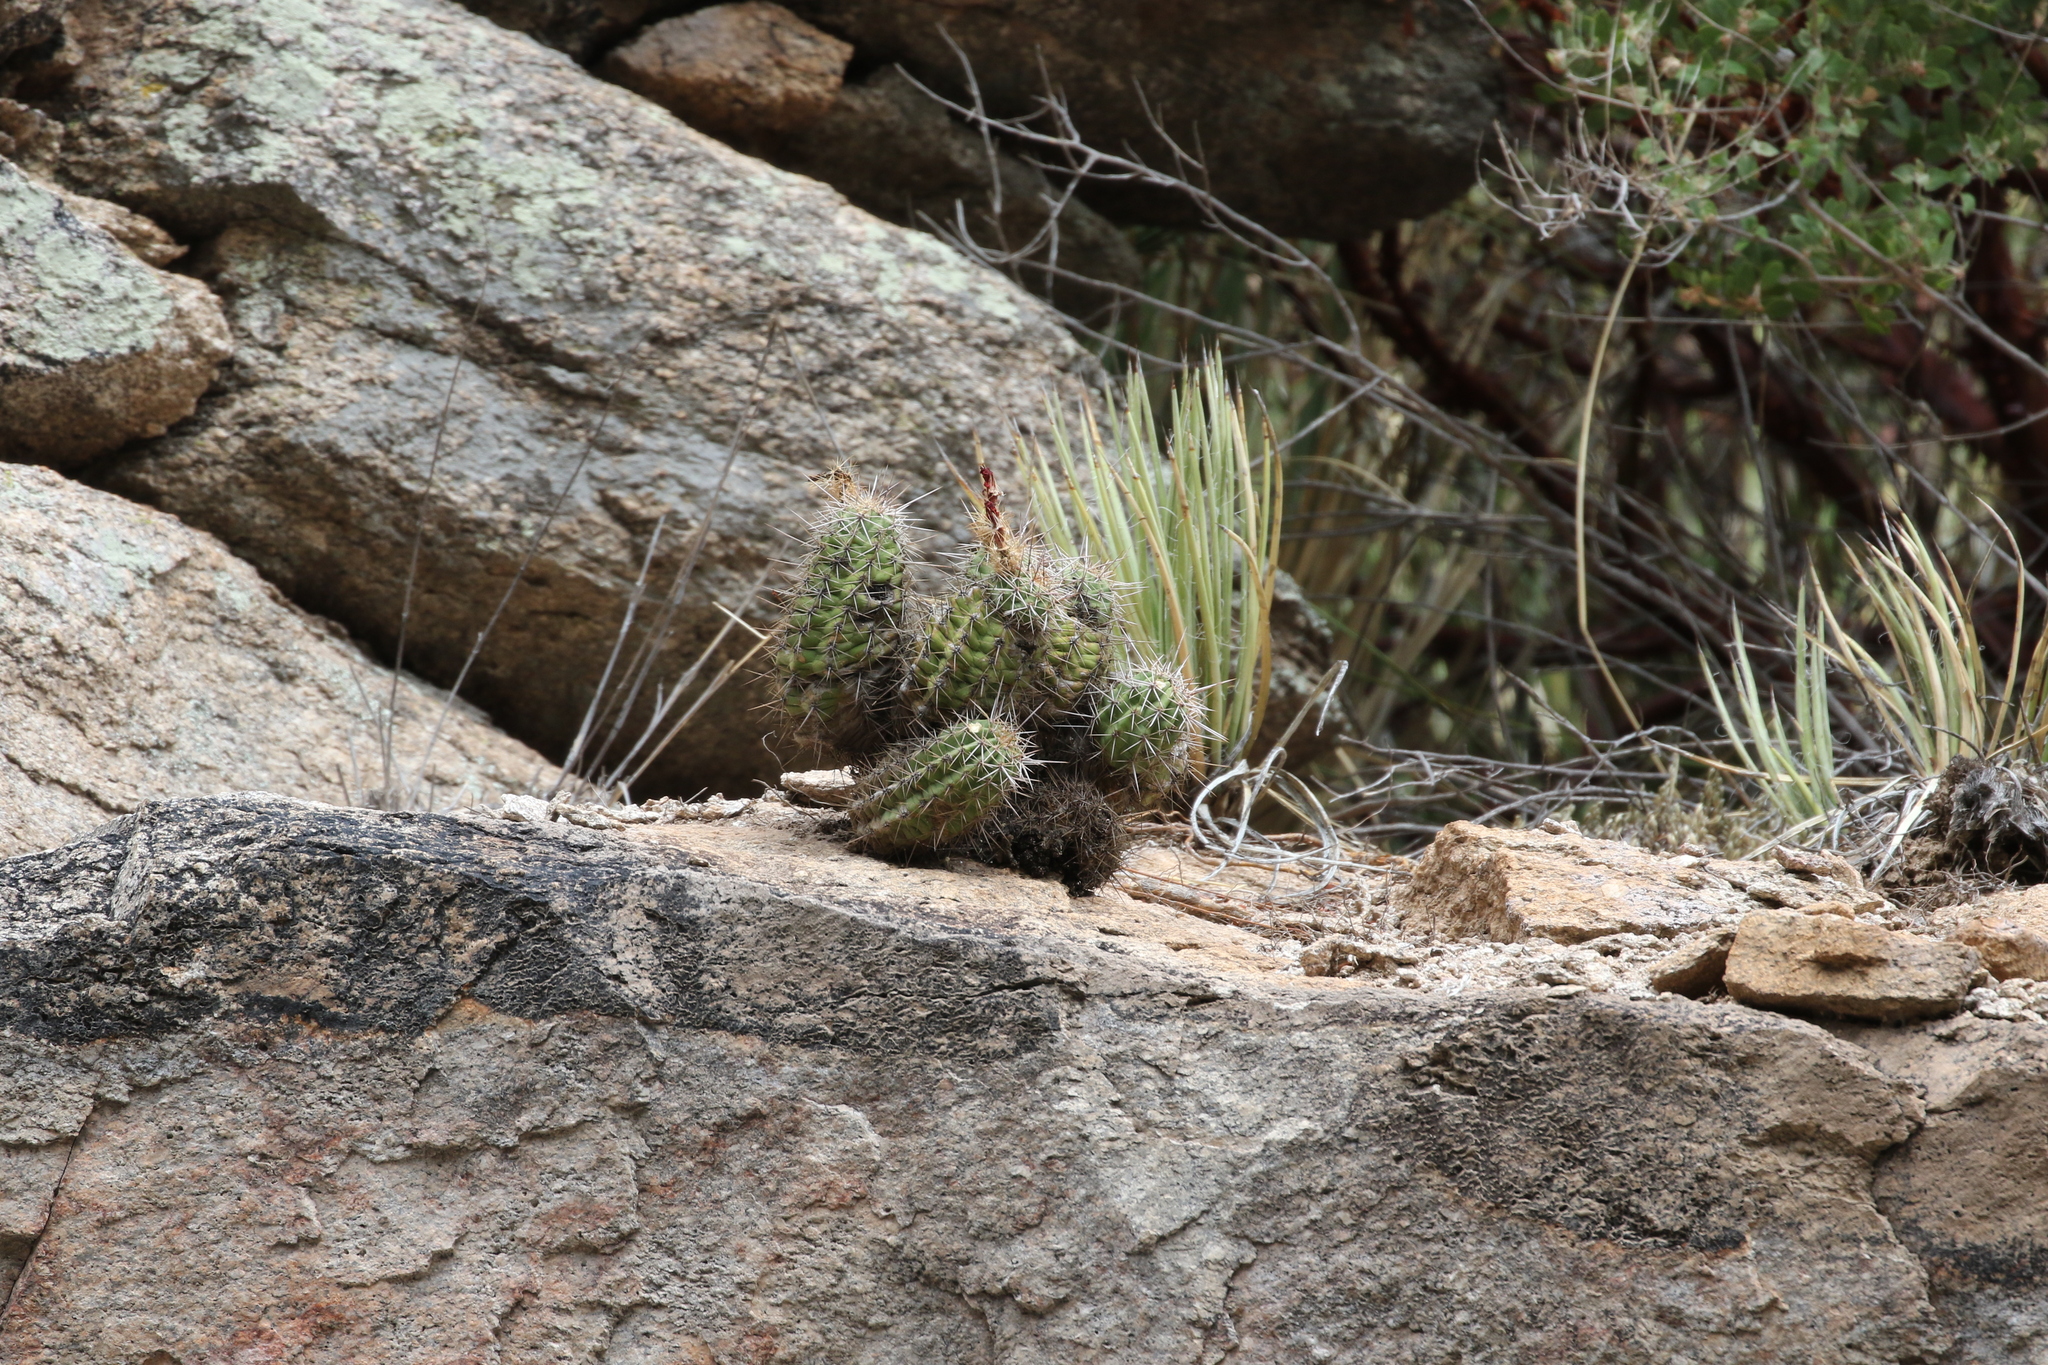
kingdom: Plantae
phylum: Tracheophyta
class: Magnoliopsida
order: Caryophyllales
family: Cactaceae
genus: Echinocereus
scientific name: Echinocereus coccineus
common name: Scarlet hedgehog cactus
